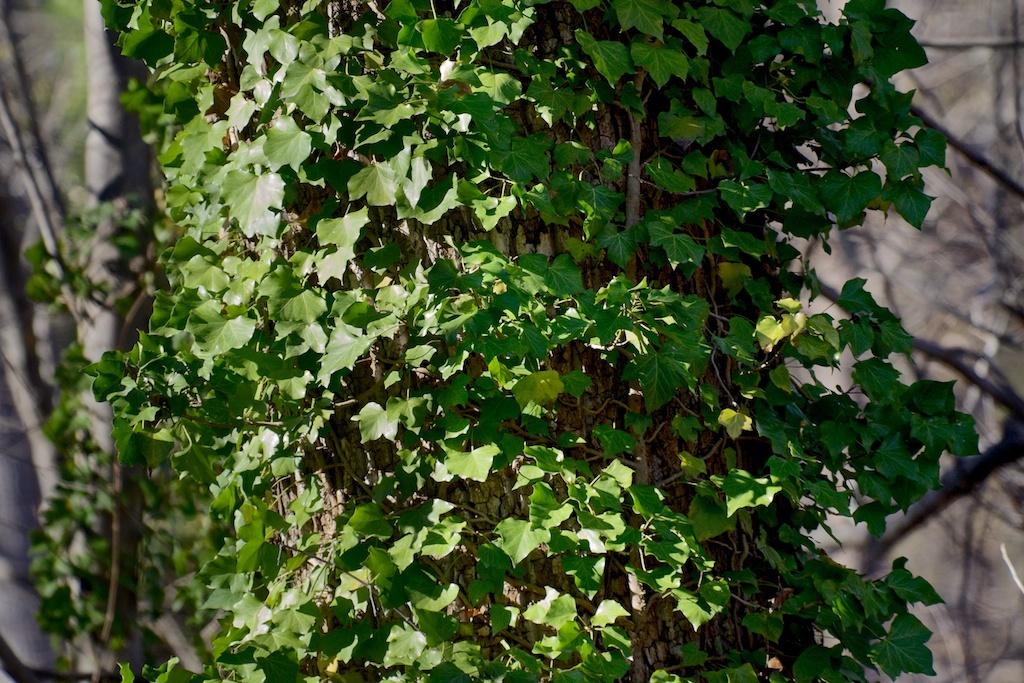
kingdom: Plantae
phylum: Tracheophyta
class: Magnoliopsida
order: Apiales
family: Araliaceae
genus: Hedera
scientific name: Hedera helix
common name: Ivy
